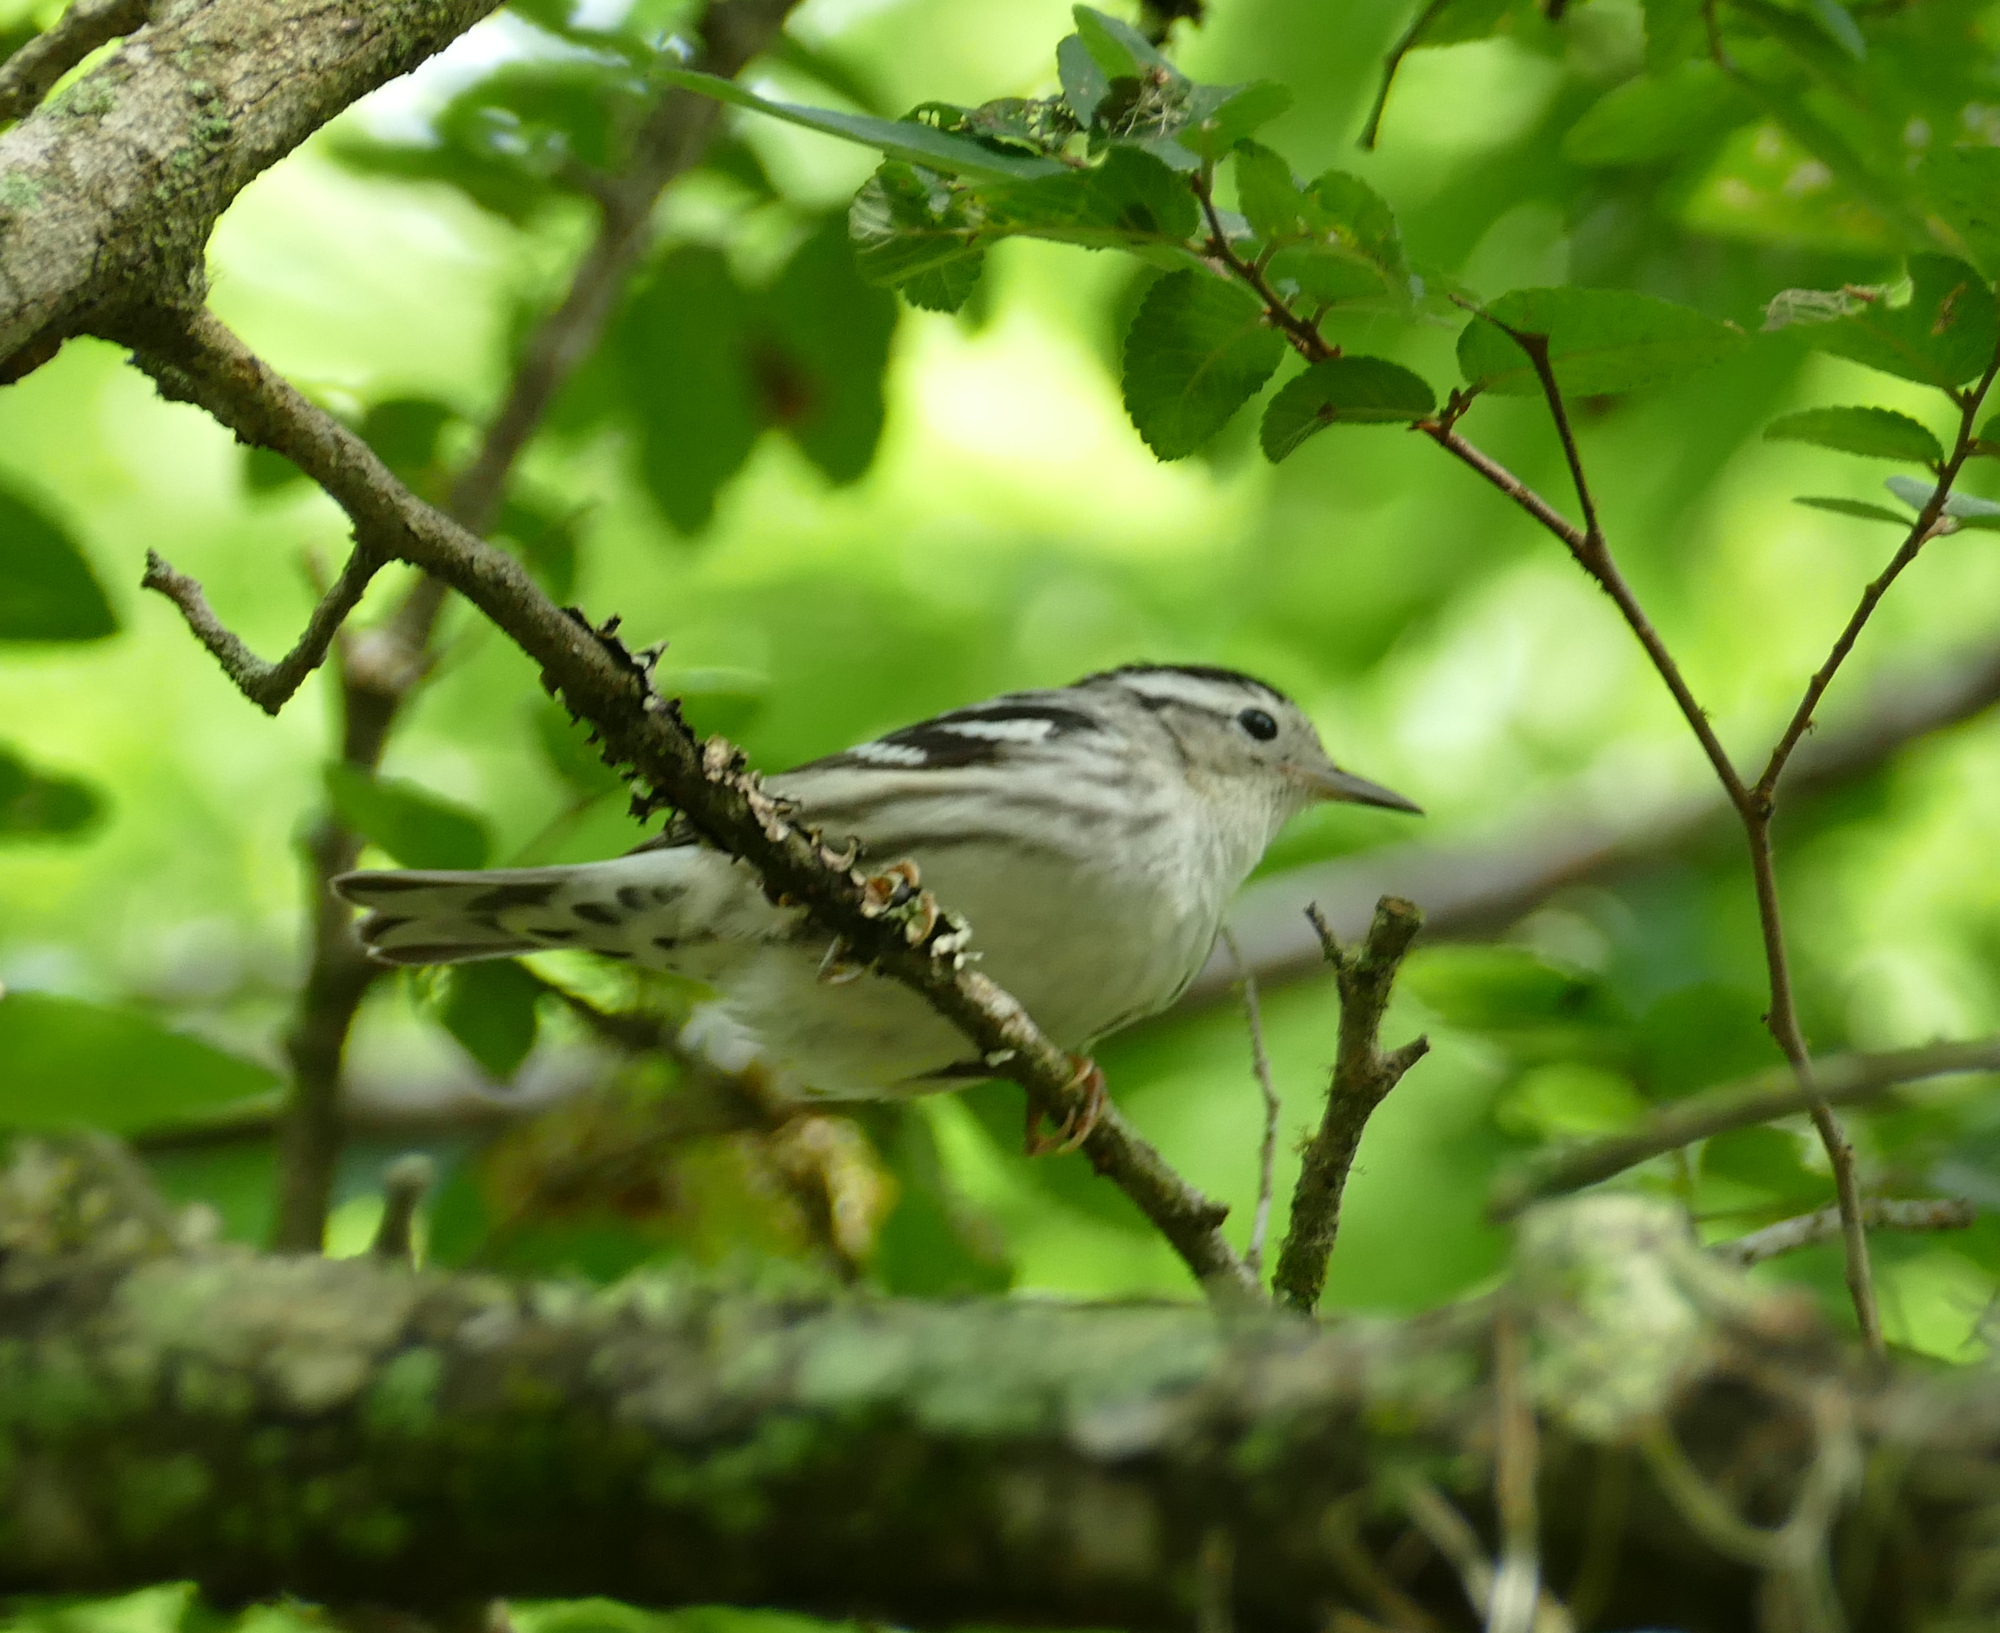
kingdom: Animalia
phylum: Chordata
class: Aves
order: Passeriformes
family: Parulidae
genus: Mniotilta
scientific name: Mniotilta varia
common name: Black-and-white warbler
